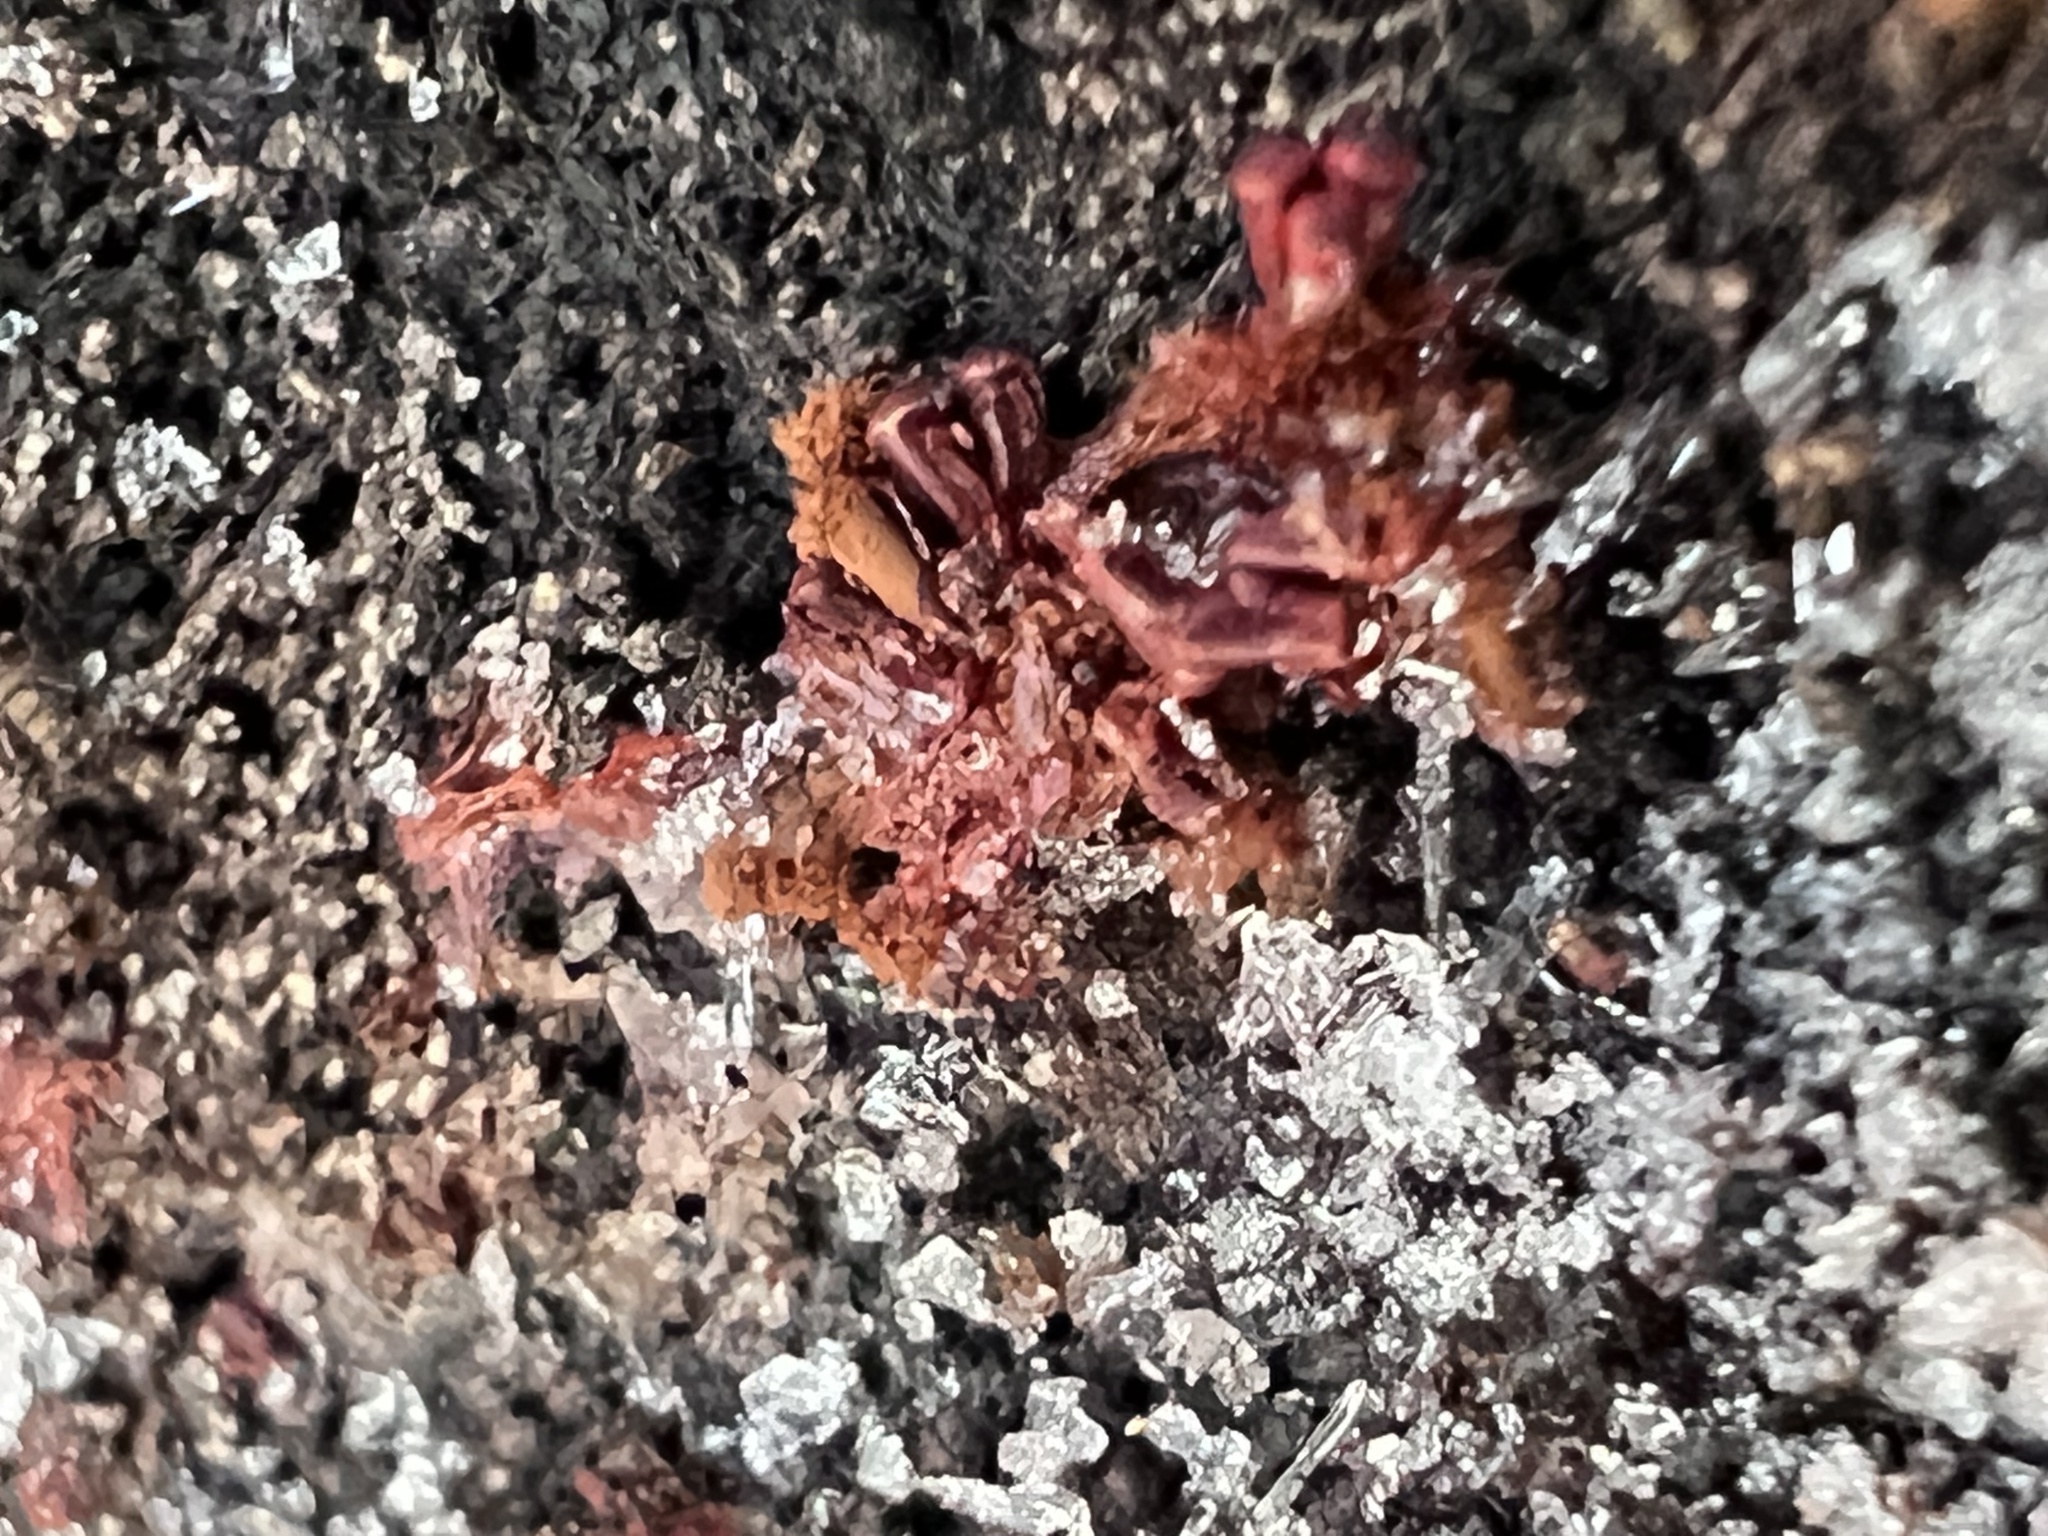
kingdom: Protozoa
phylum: Mycetozoa
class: Myxomycetes
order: Trichiales
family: Trichiaceae
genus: Metatrichia
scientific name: Metatrichia vesparia
